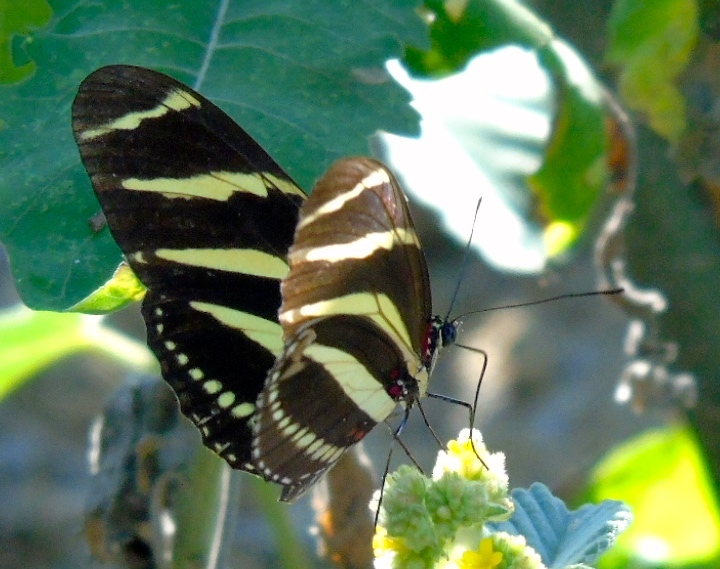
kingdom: Animalia
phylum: Arthropoda
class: Insecta
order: Lepidoptera
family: Nymphalidae
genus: Heliconius
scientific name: Heliconius charithonia
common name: Zebra long wing
